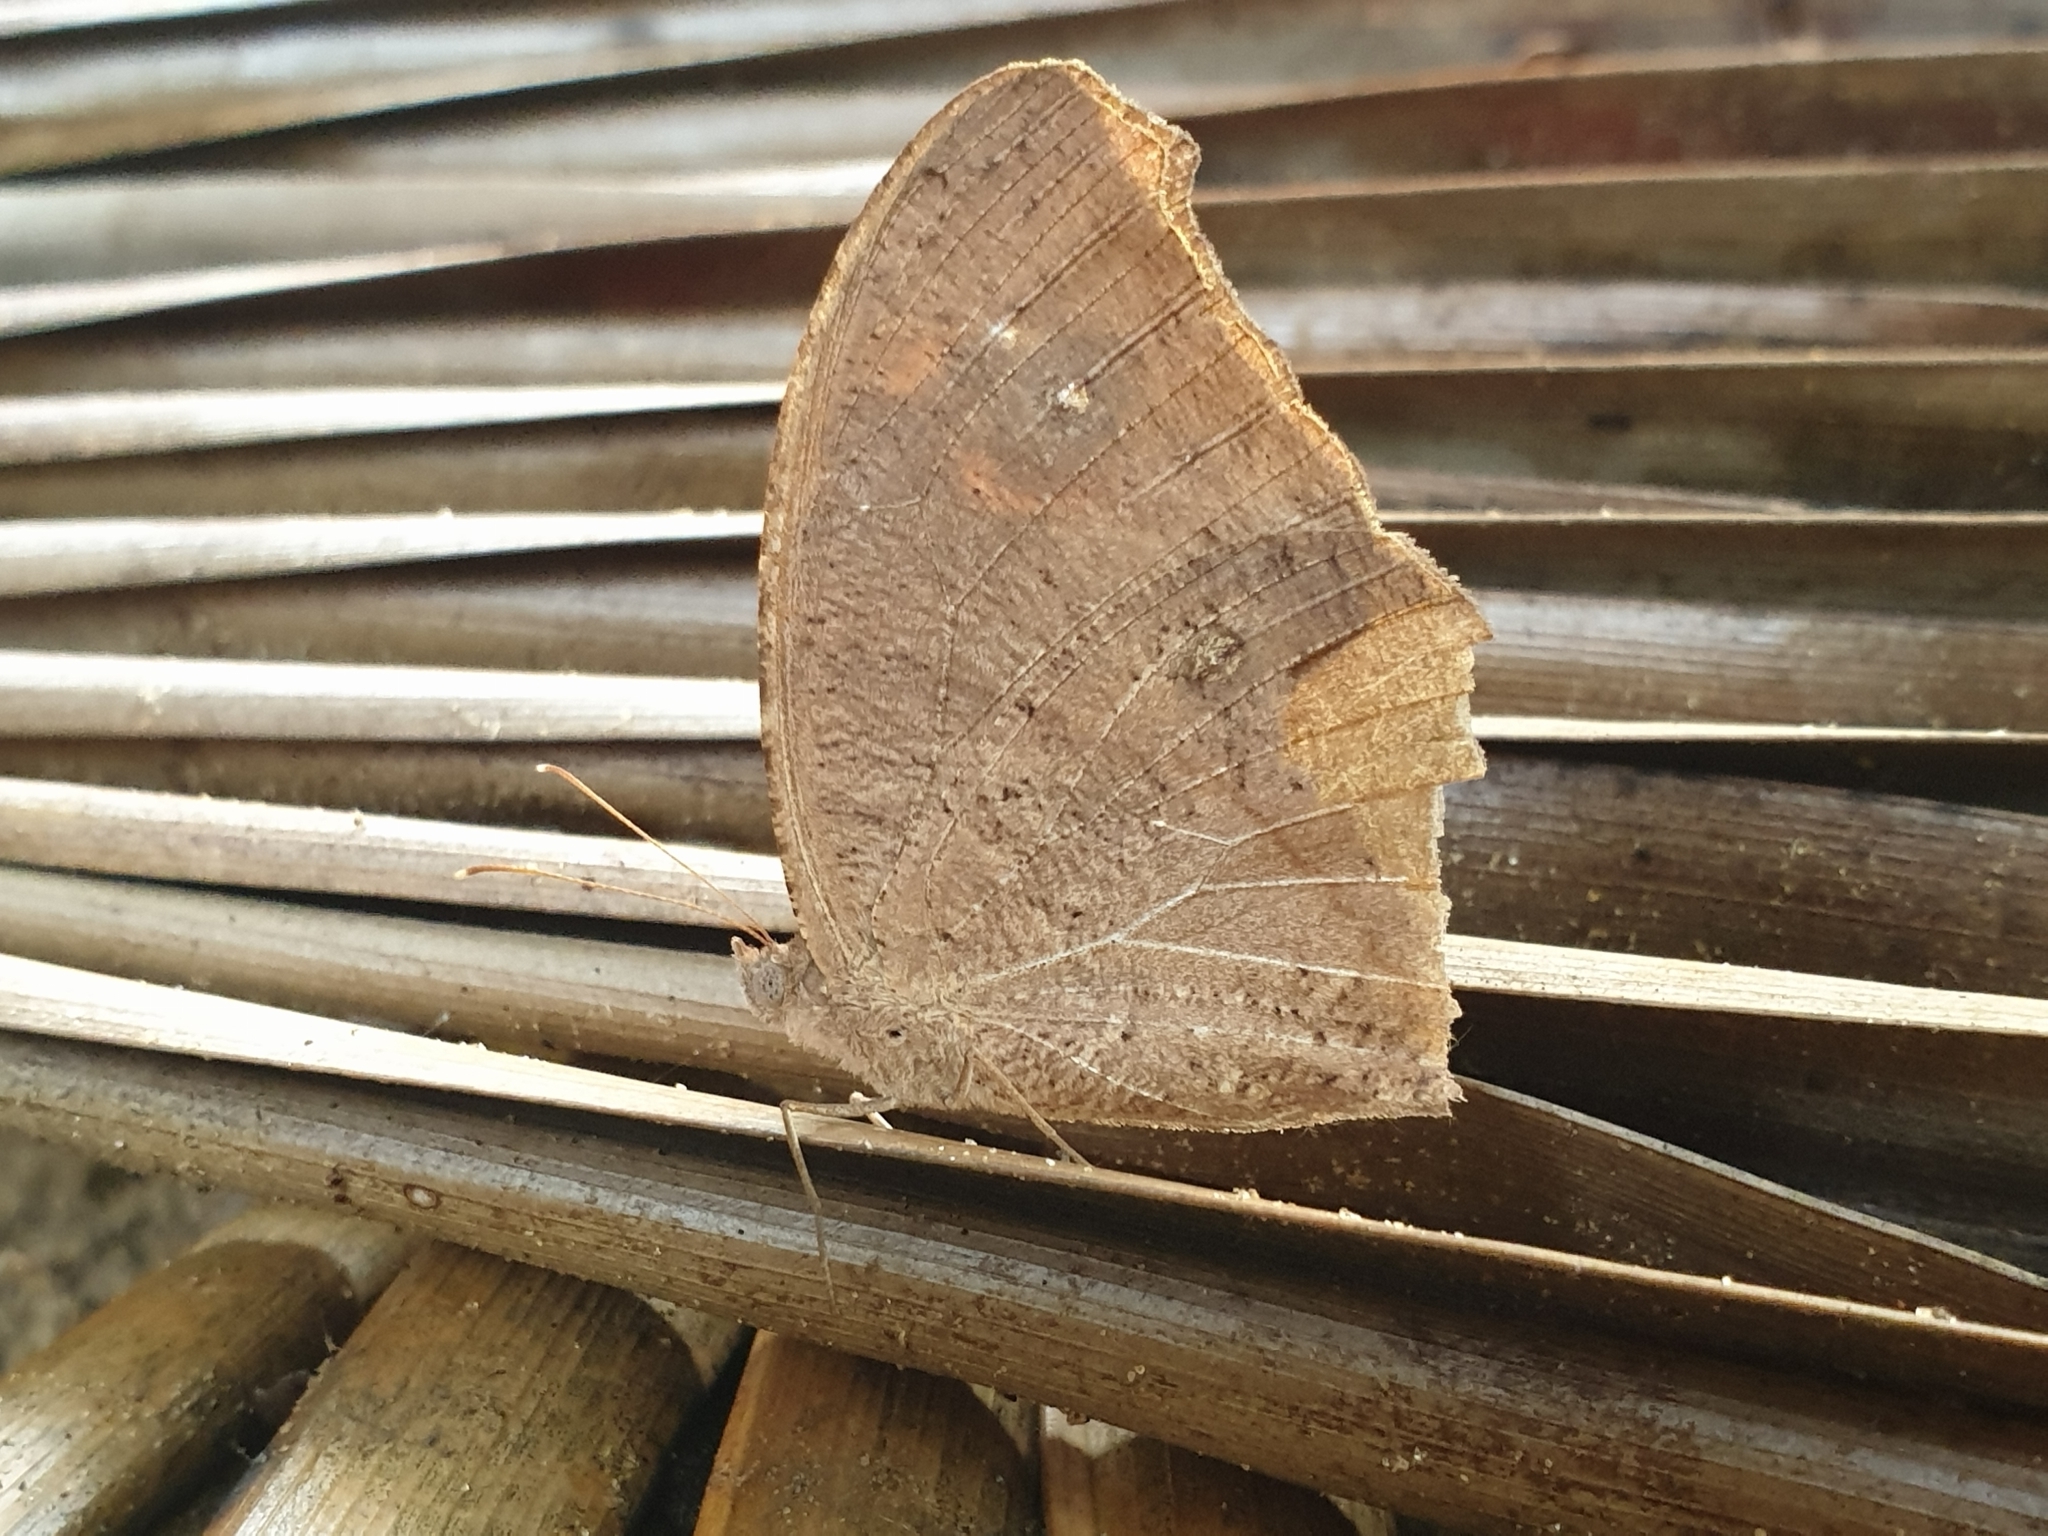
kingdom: Animalia
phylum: Arthropoda
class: Insecta
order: Lepidoptera
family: Nymphalidae
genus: Melanitis
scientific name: Melanitis leda
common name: Twilight brown
